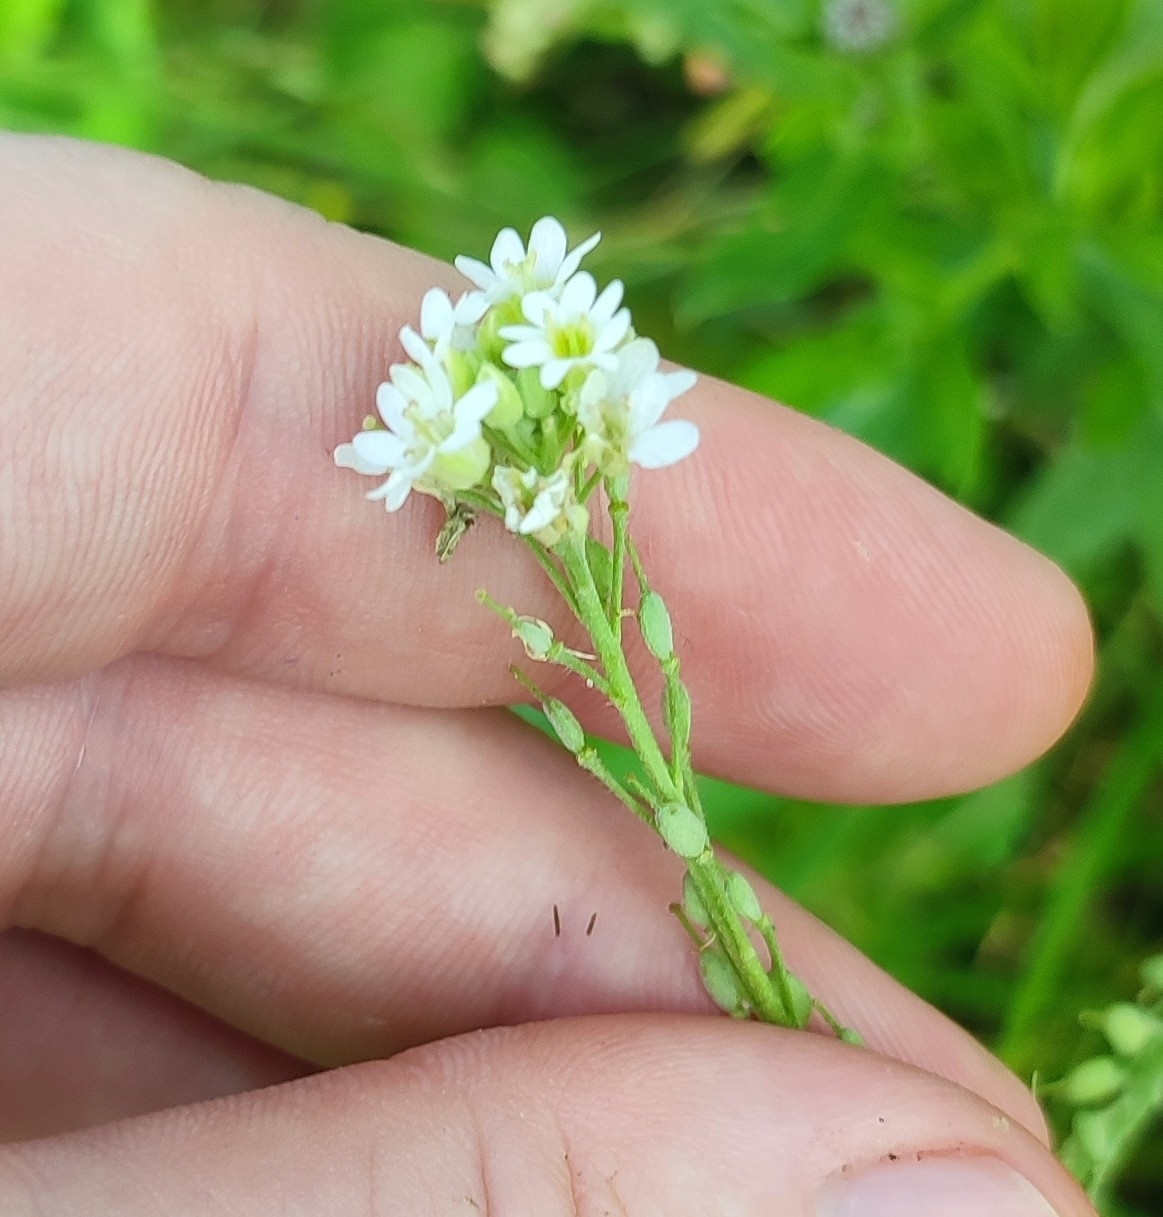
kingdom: Plantae
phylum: Tracheophyta
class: Magnoliopsida
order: Brassicales
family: Brassicaceae
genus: Berteroa
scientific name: Berteroa incana
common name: Hoary alison
